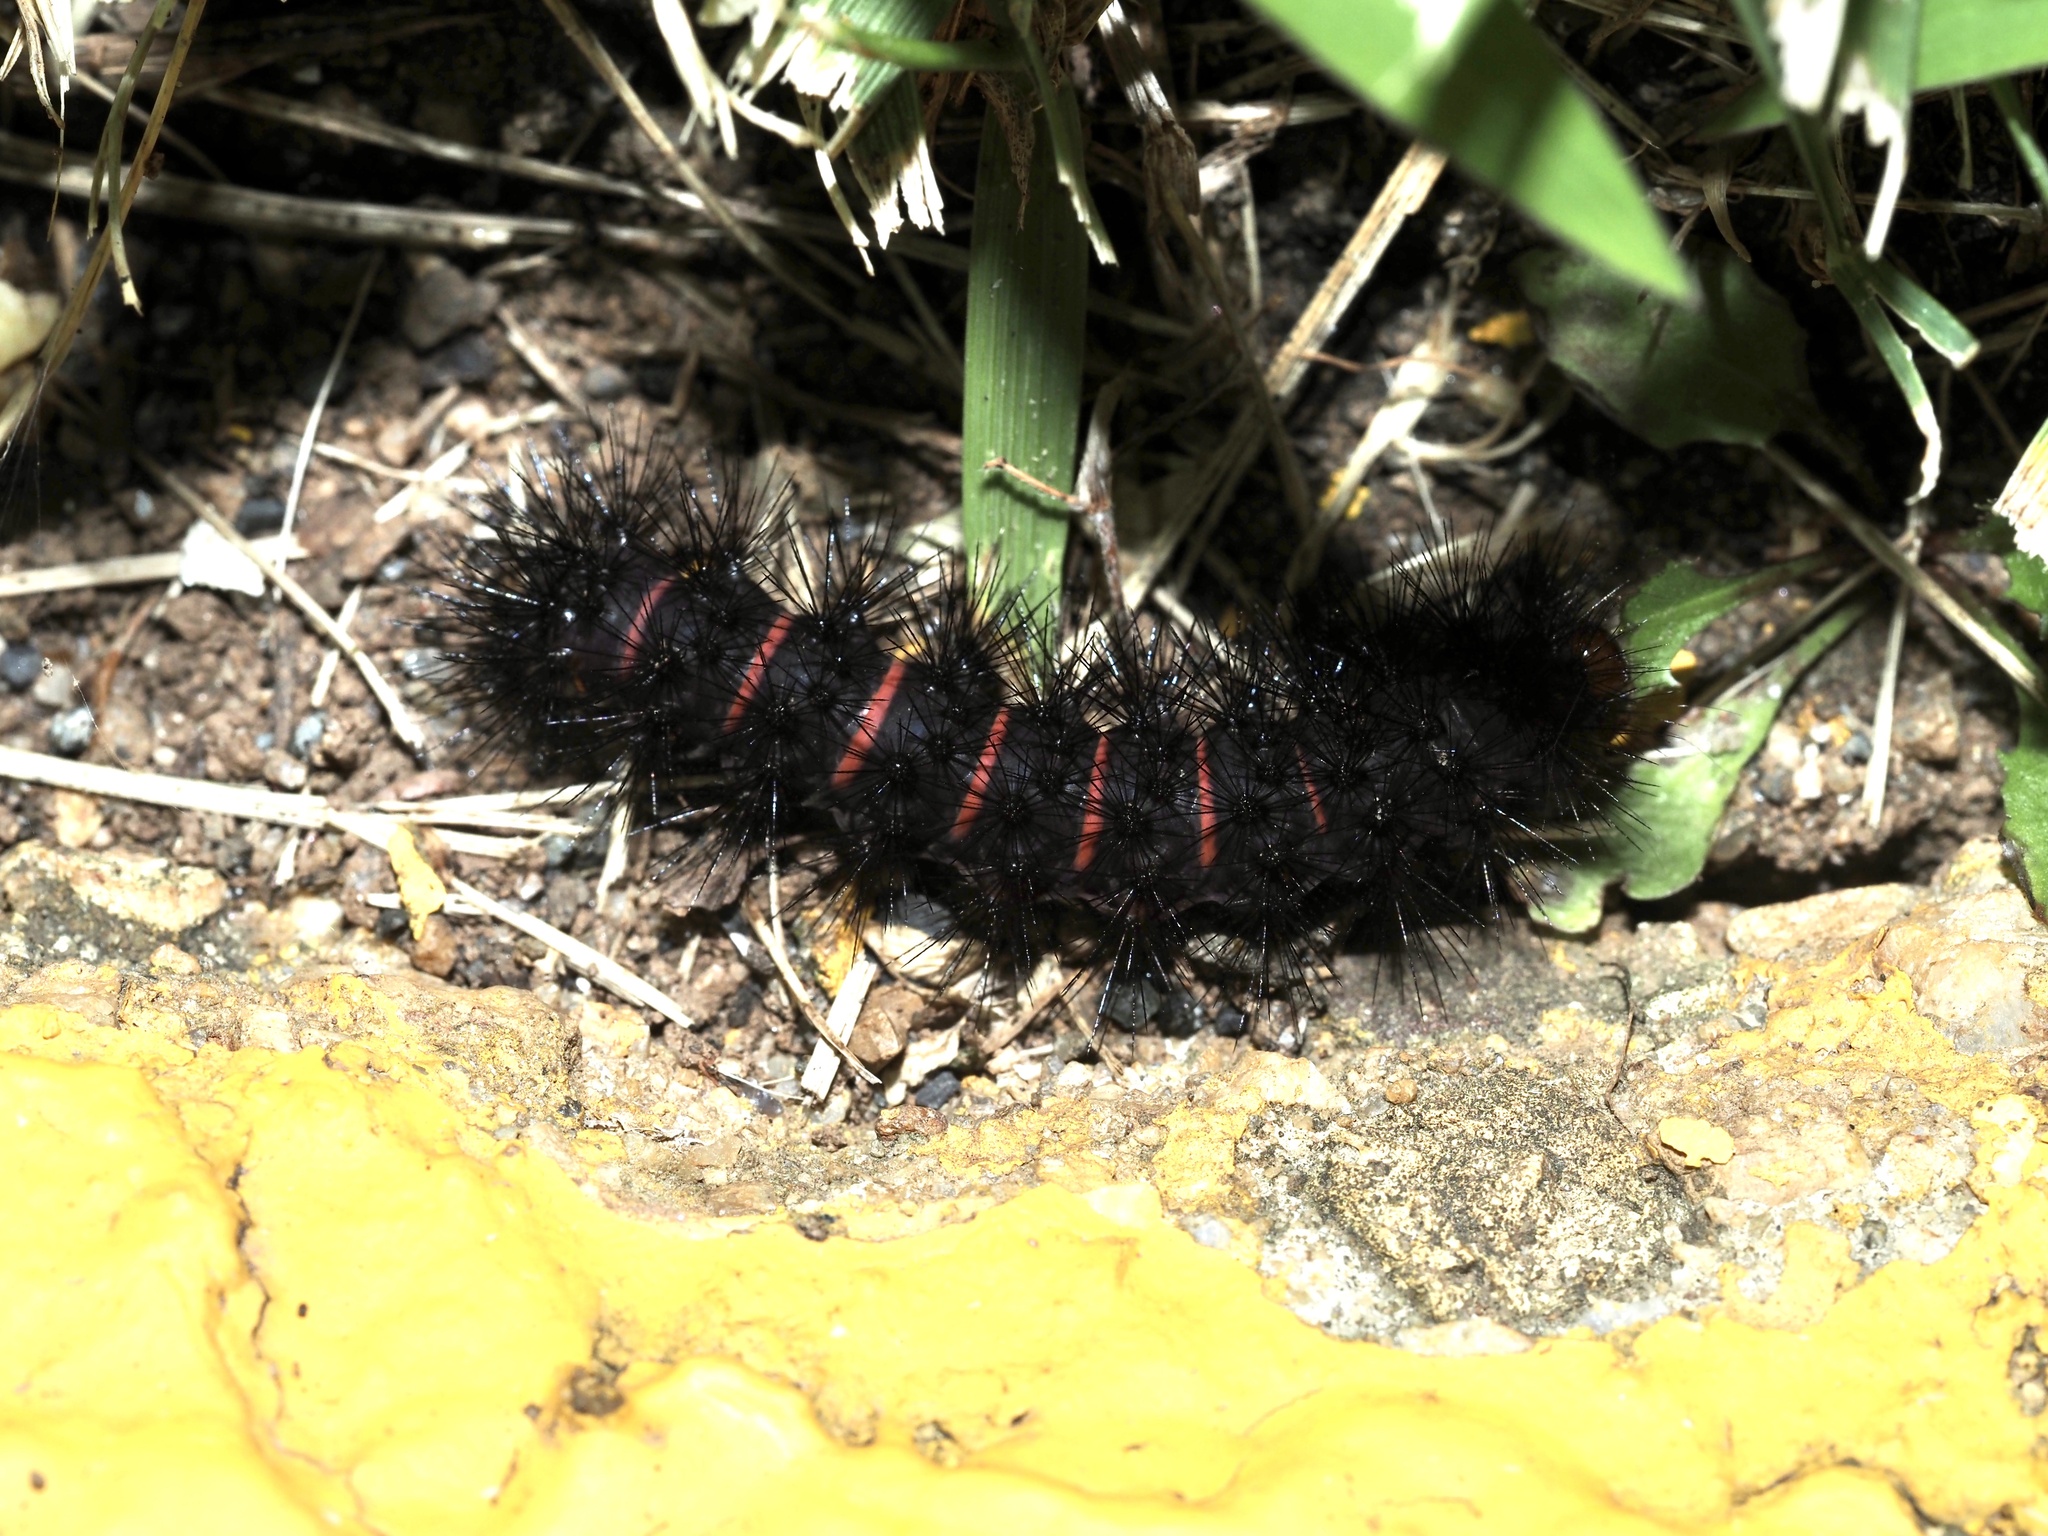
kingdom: Animalia
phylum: Arthropoda
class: Insecta
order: Lepidoptera
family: Erebidae
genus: Hypercompe
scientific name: Hypercompe scribonia
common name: Giant leopard moth
